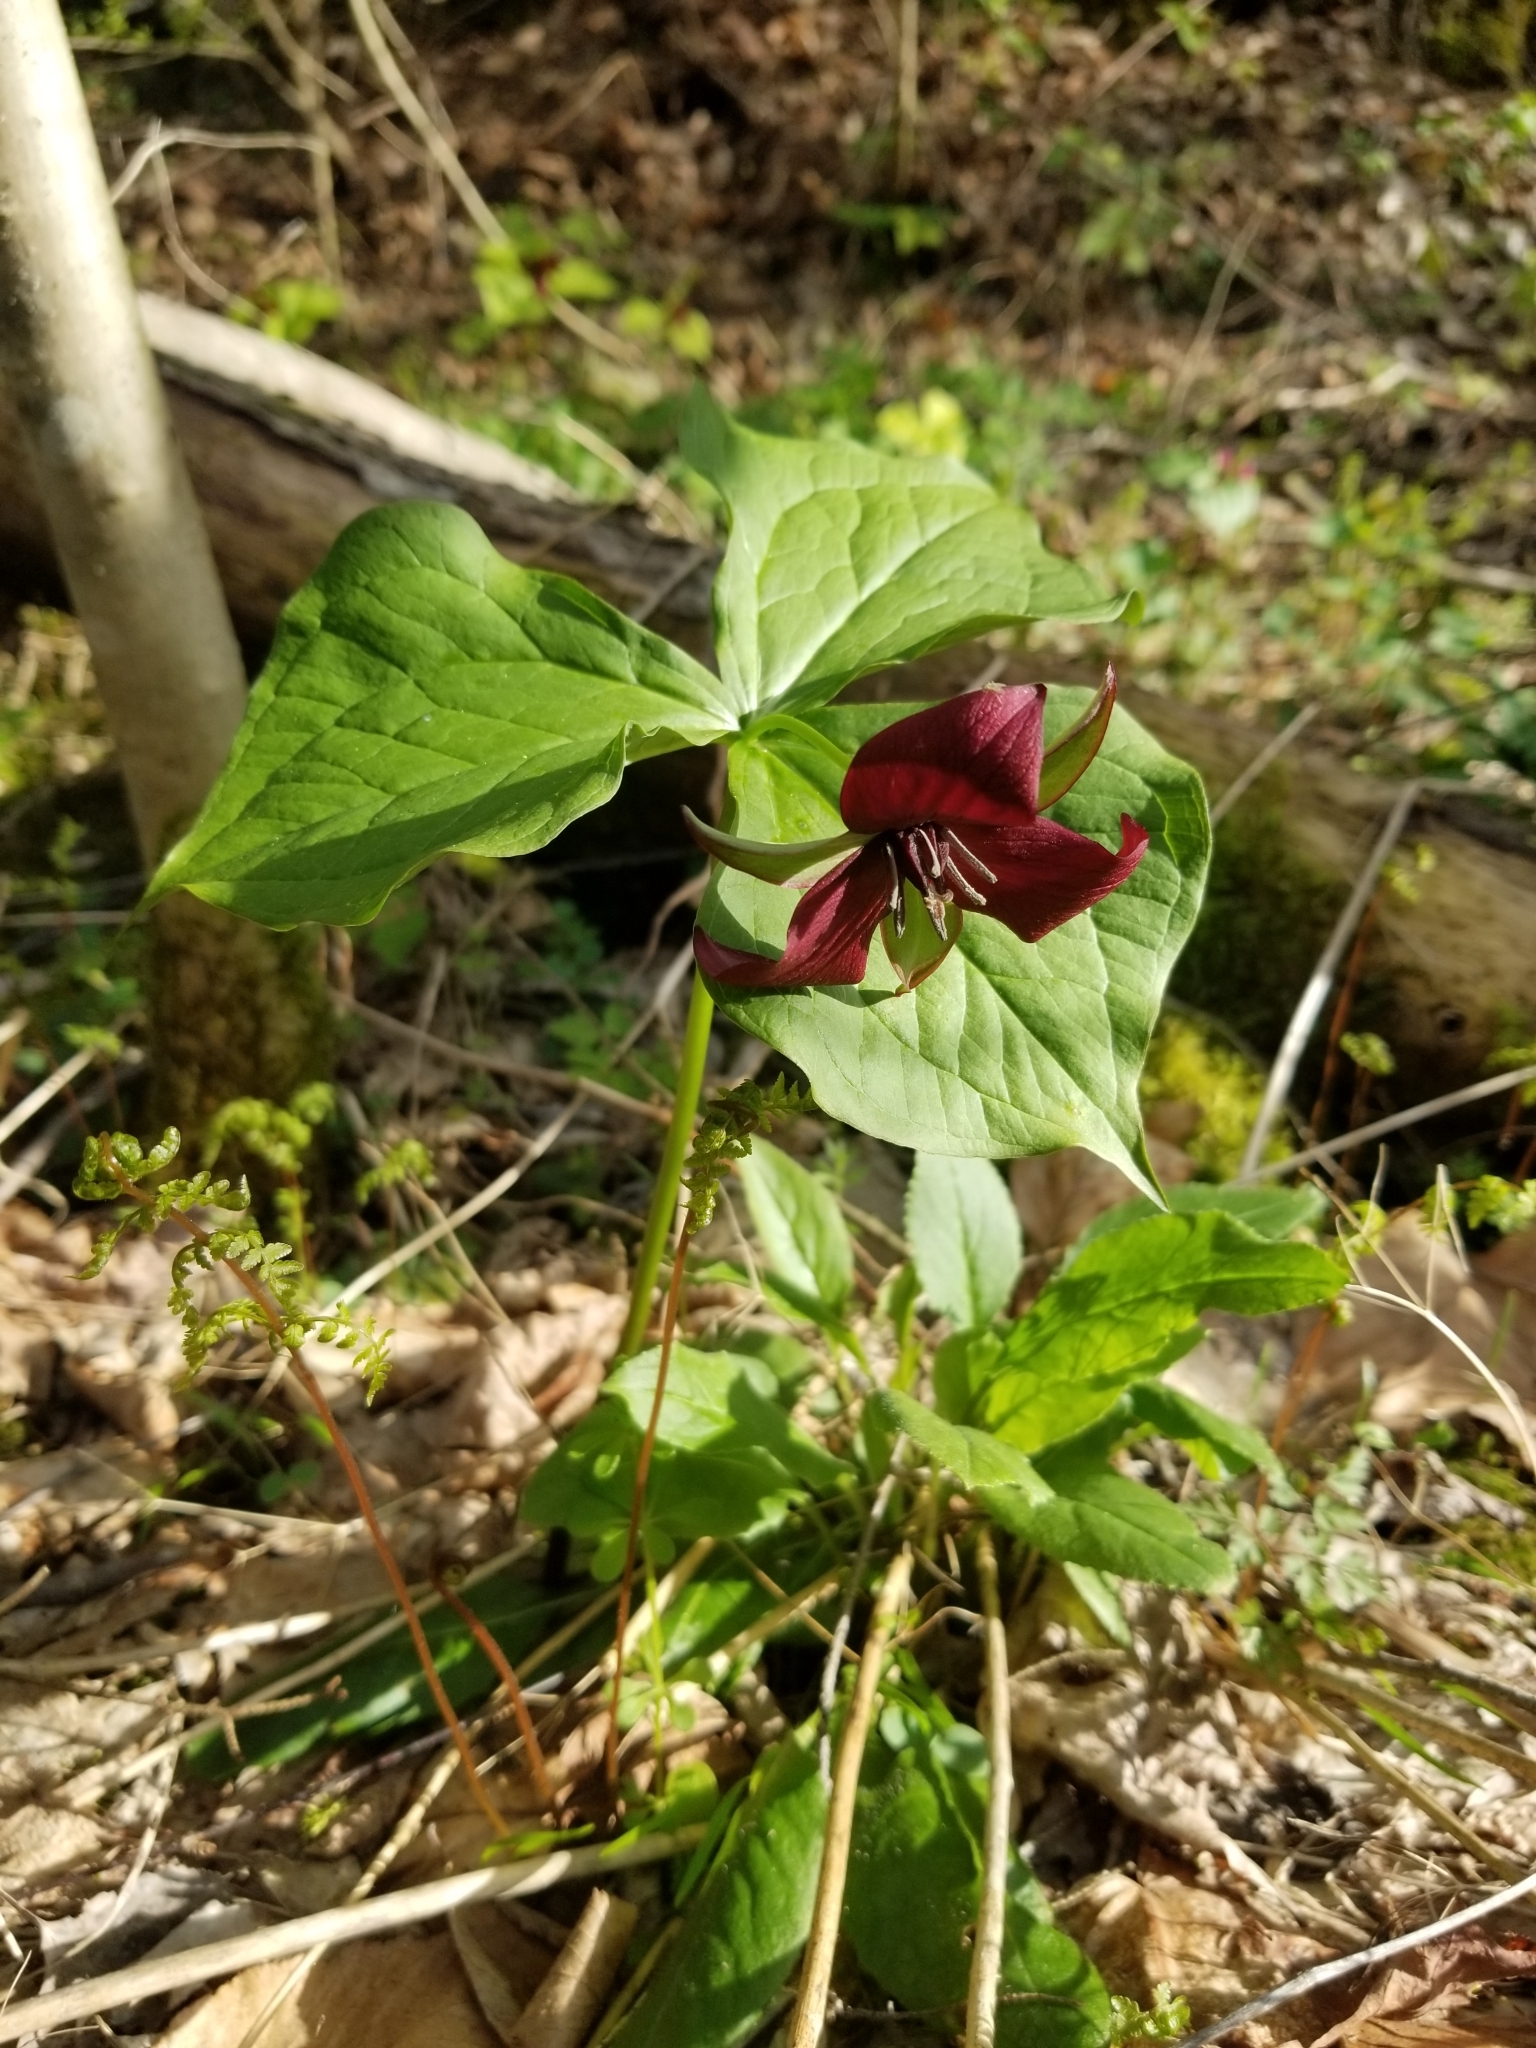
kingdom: Plantae
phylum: Tracheophyta
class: Liliopsida
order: Liliales
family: Melanthiaceae
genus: Trillium
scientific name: Trillium erectum
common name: Purple trillium
